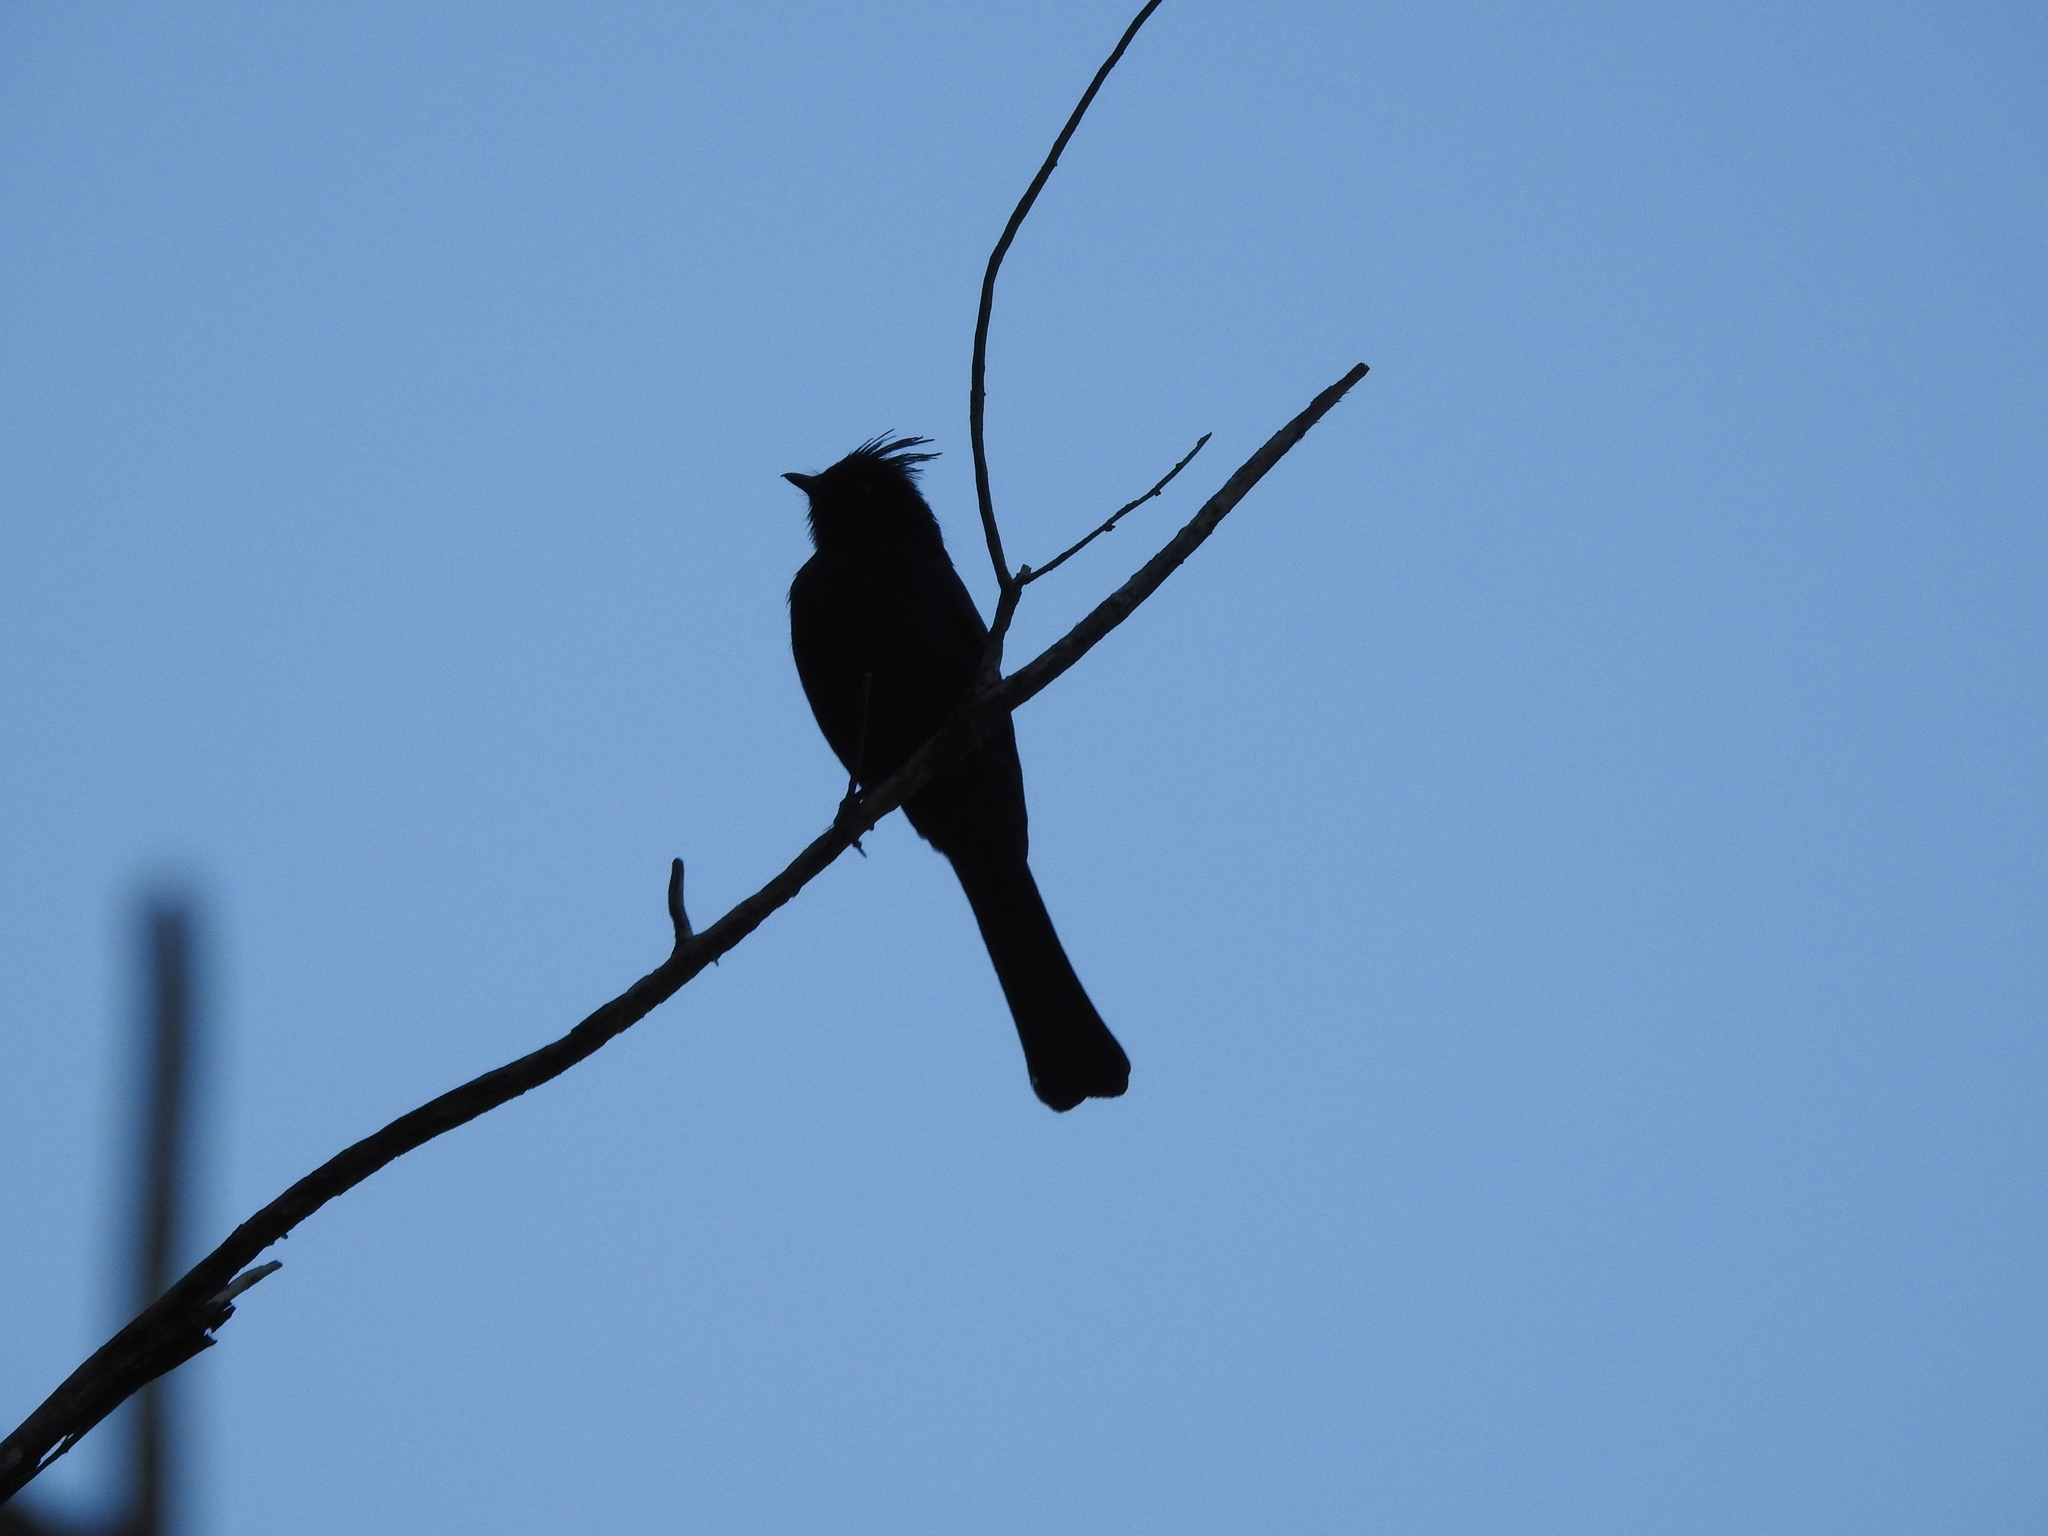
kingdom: Animalia
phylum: Chordata
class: Aves
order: Passeriformes
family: Ptilogonatidae
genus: Phainopepla
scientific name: Phainopepla nitens
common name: Phainopepla
